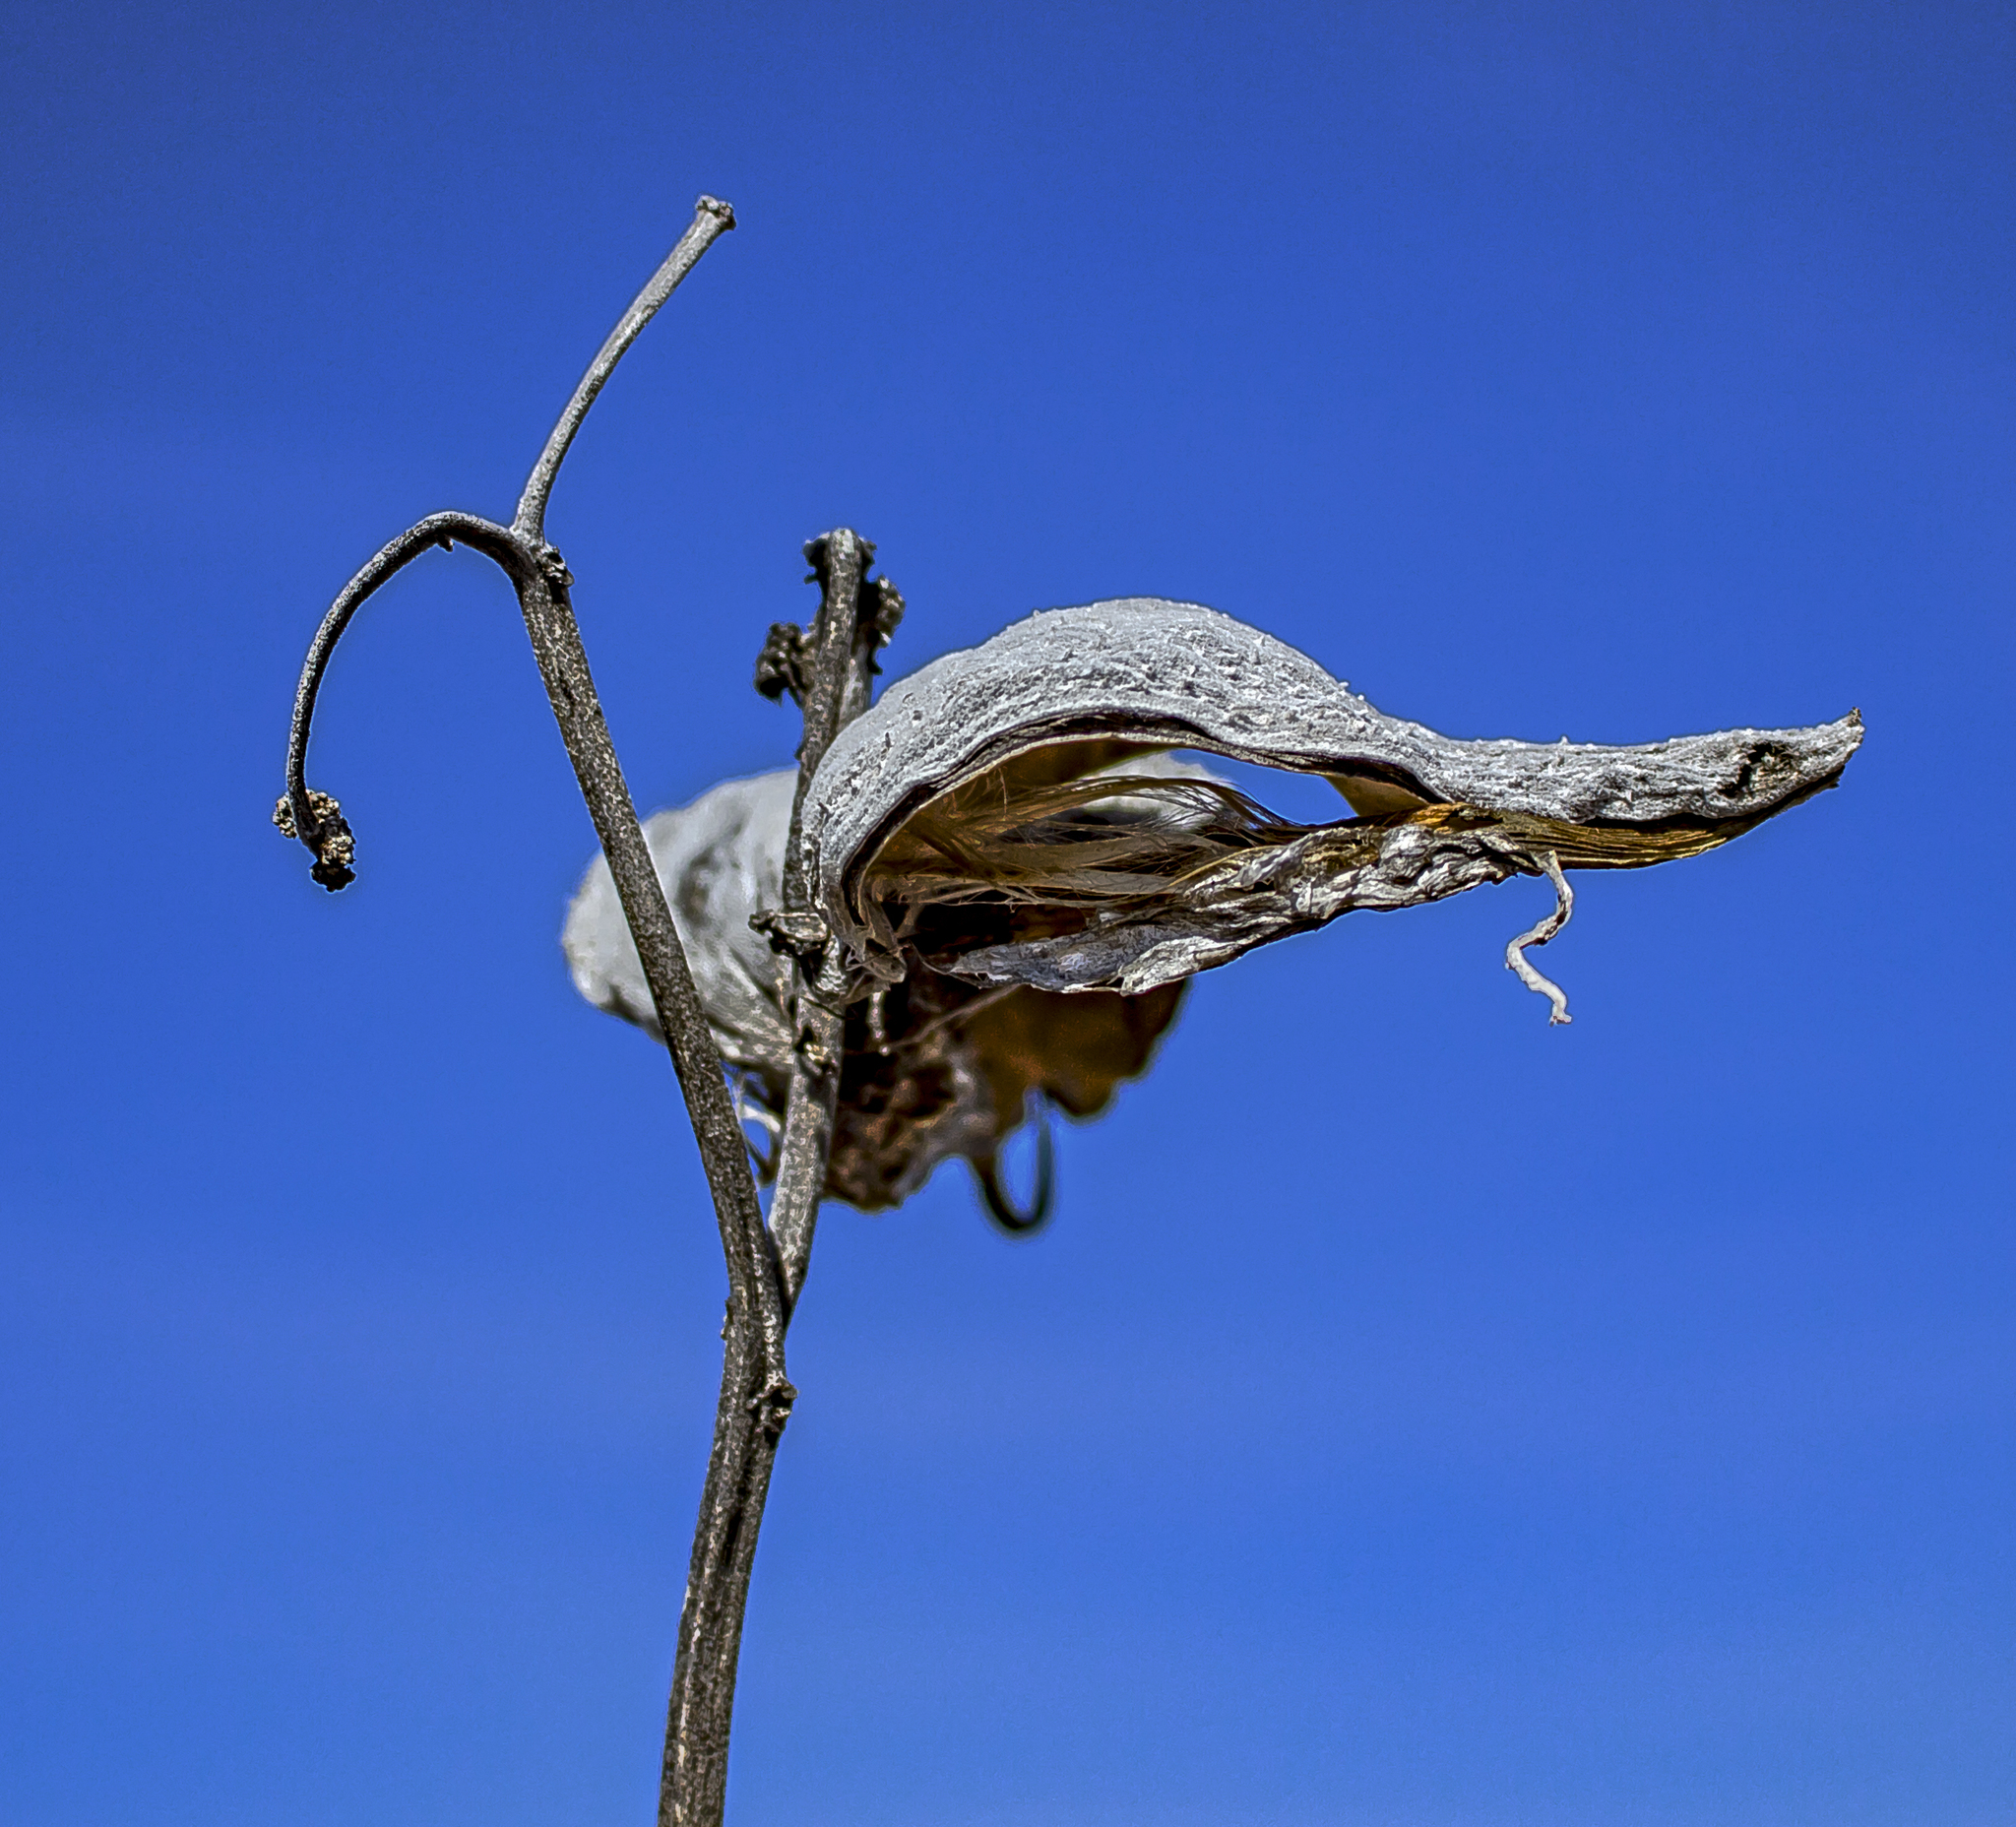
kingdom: Plantae
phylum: Tracheophyta
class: Magnoliopsida
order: Gentianales
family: Apocynaceae
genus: Asclepias
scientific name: Asclepias syriaca
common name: Common milkweed
